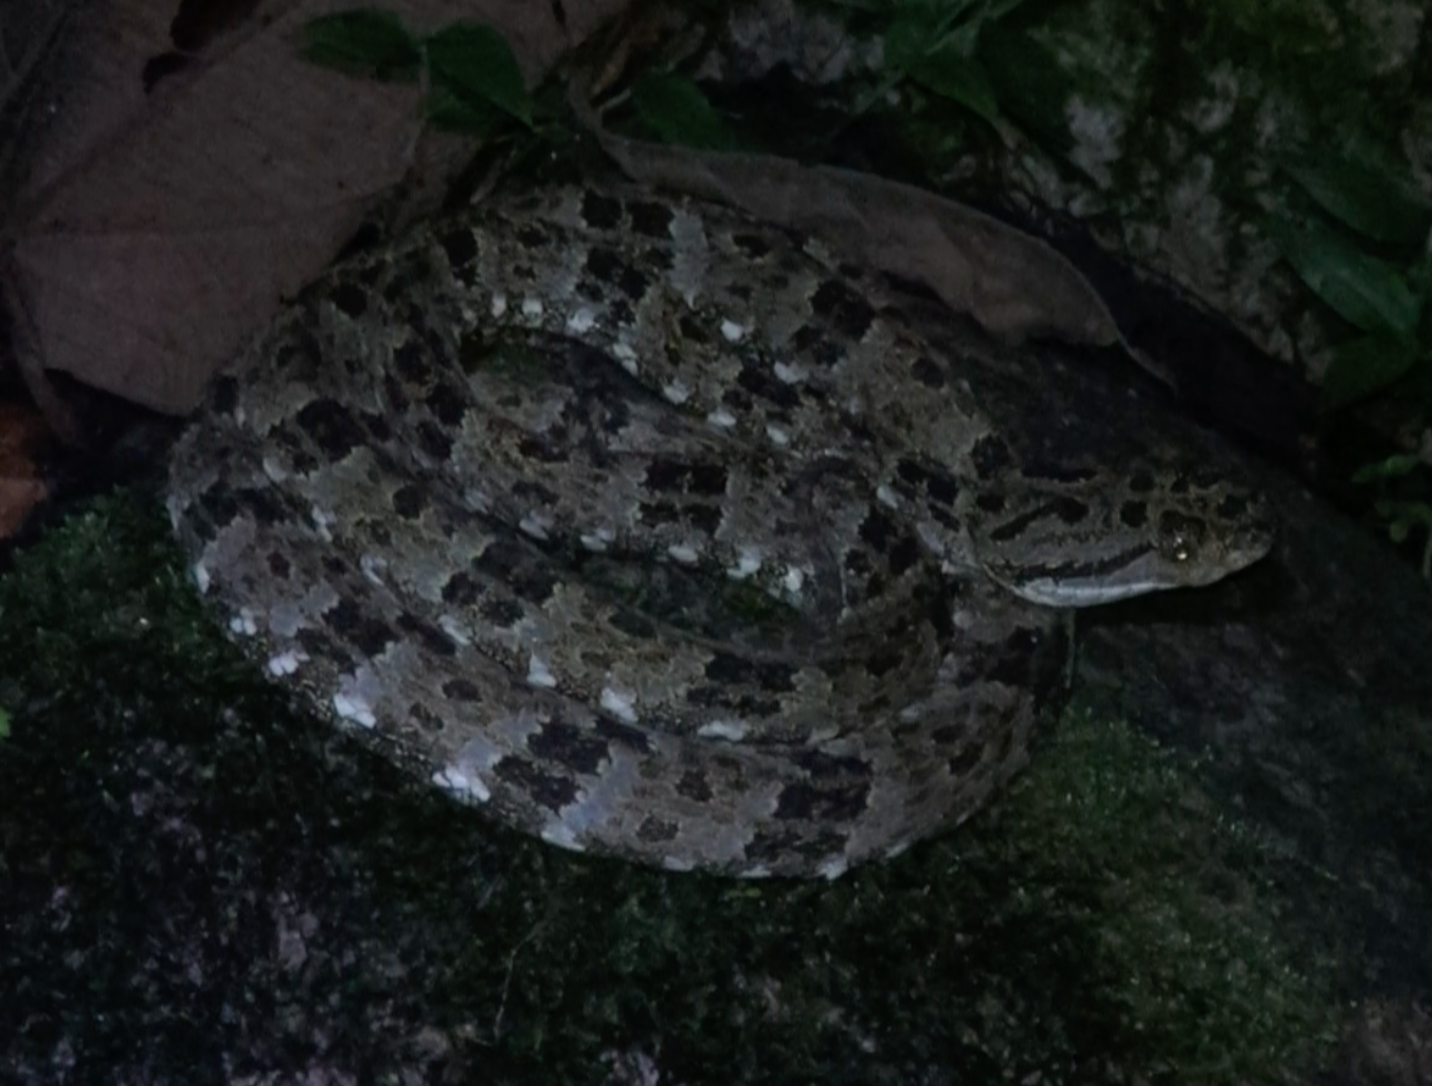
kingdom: Animalia
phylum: Chordata
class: Squamata
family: Viperidae
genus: Bothrops
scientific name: Bothrops taeniatus
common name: Speckled forest pit viper
